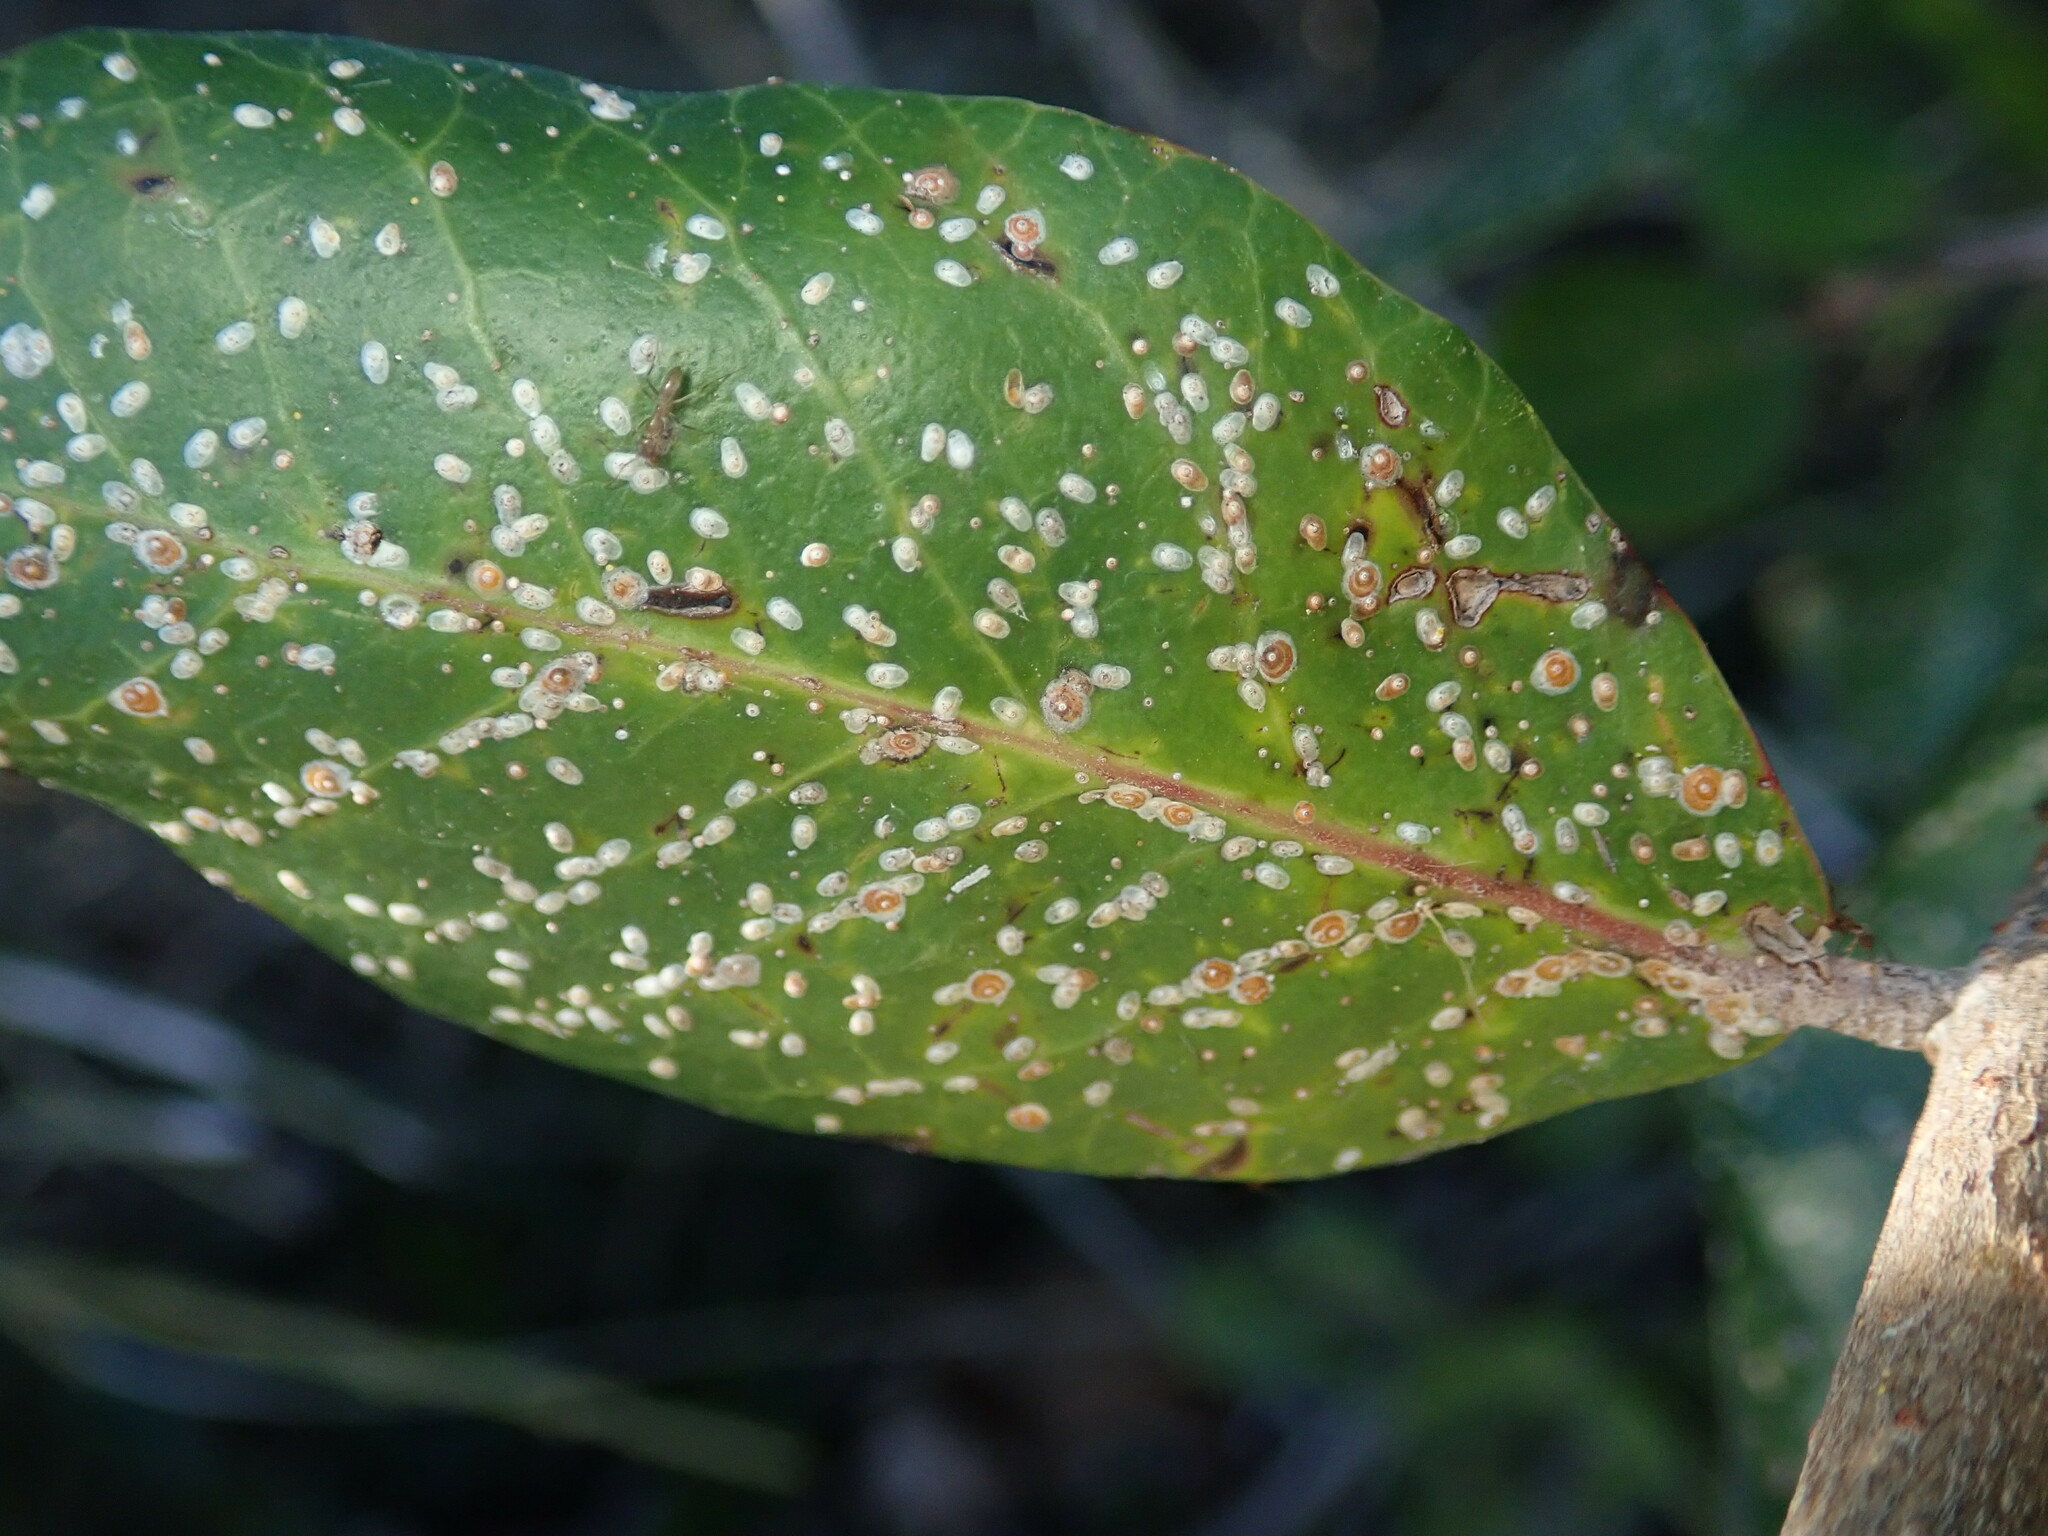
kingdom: Animalia
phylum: Arthropoda
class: Insecta
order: Hemiptera
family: Diaspididae
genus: Aonidiella
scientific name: Aonidiella aurantii
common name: California red scale
